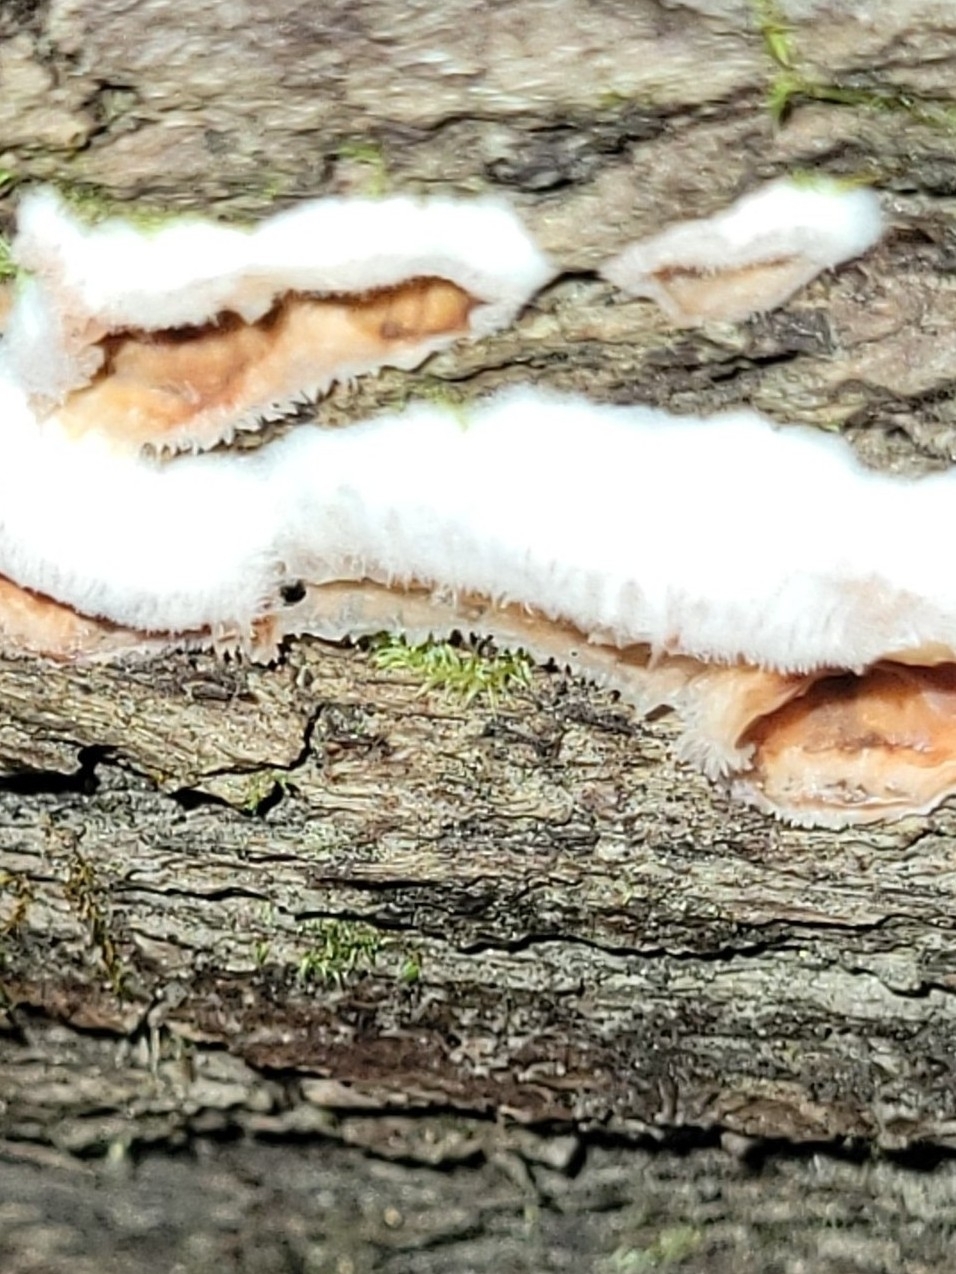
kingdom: Fungi
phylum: Basidiomycota
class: Agaricomycetes
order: Polyporales
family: Meruliaceae
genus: Phlebia
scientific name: Phlebia tremellosa
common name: Jelly rot
